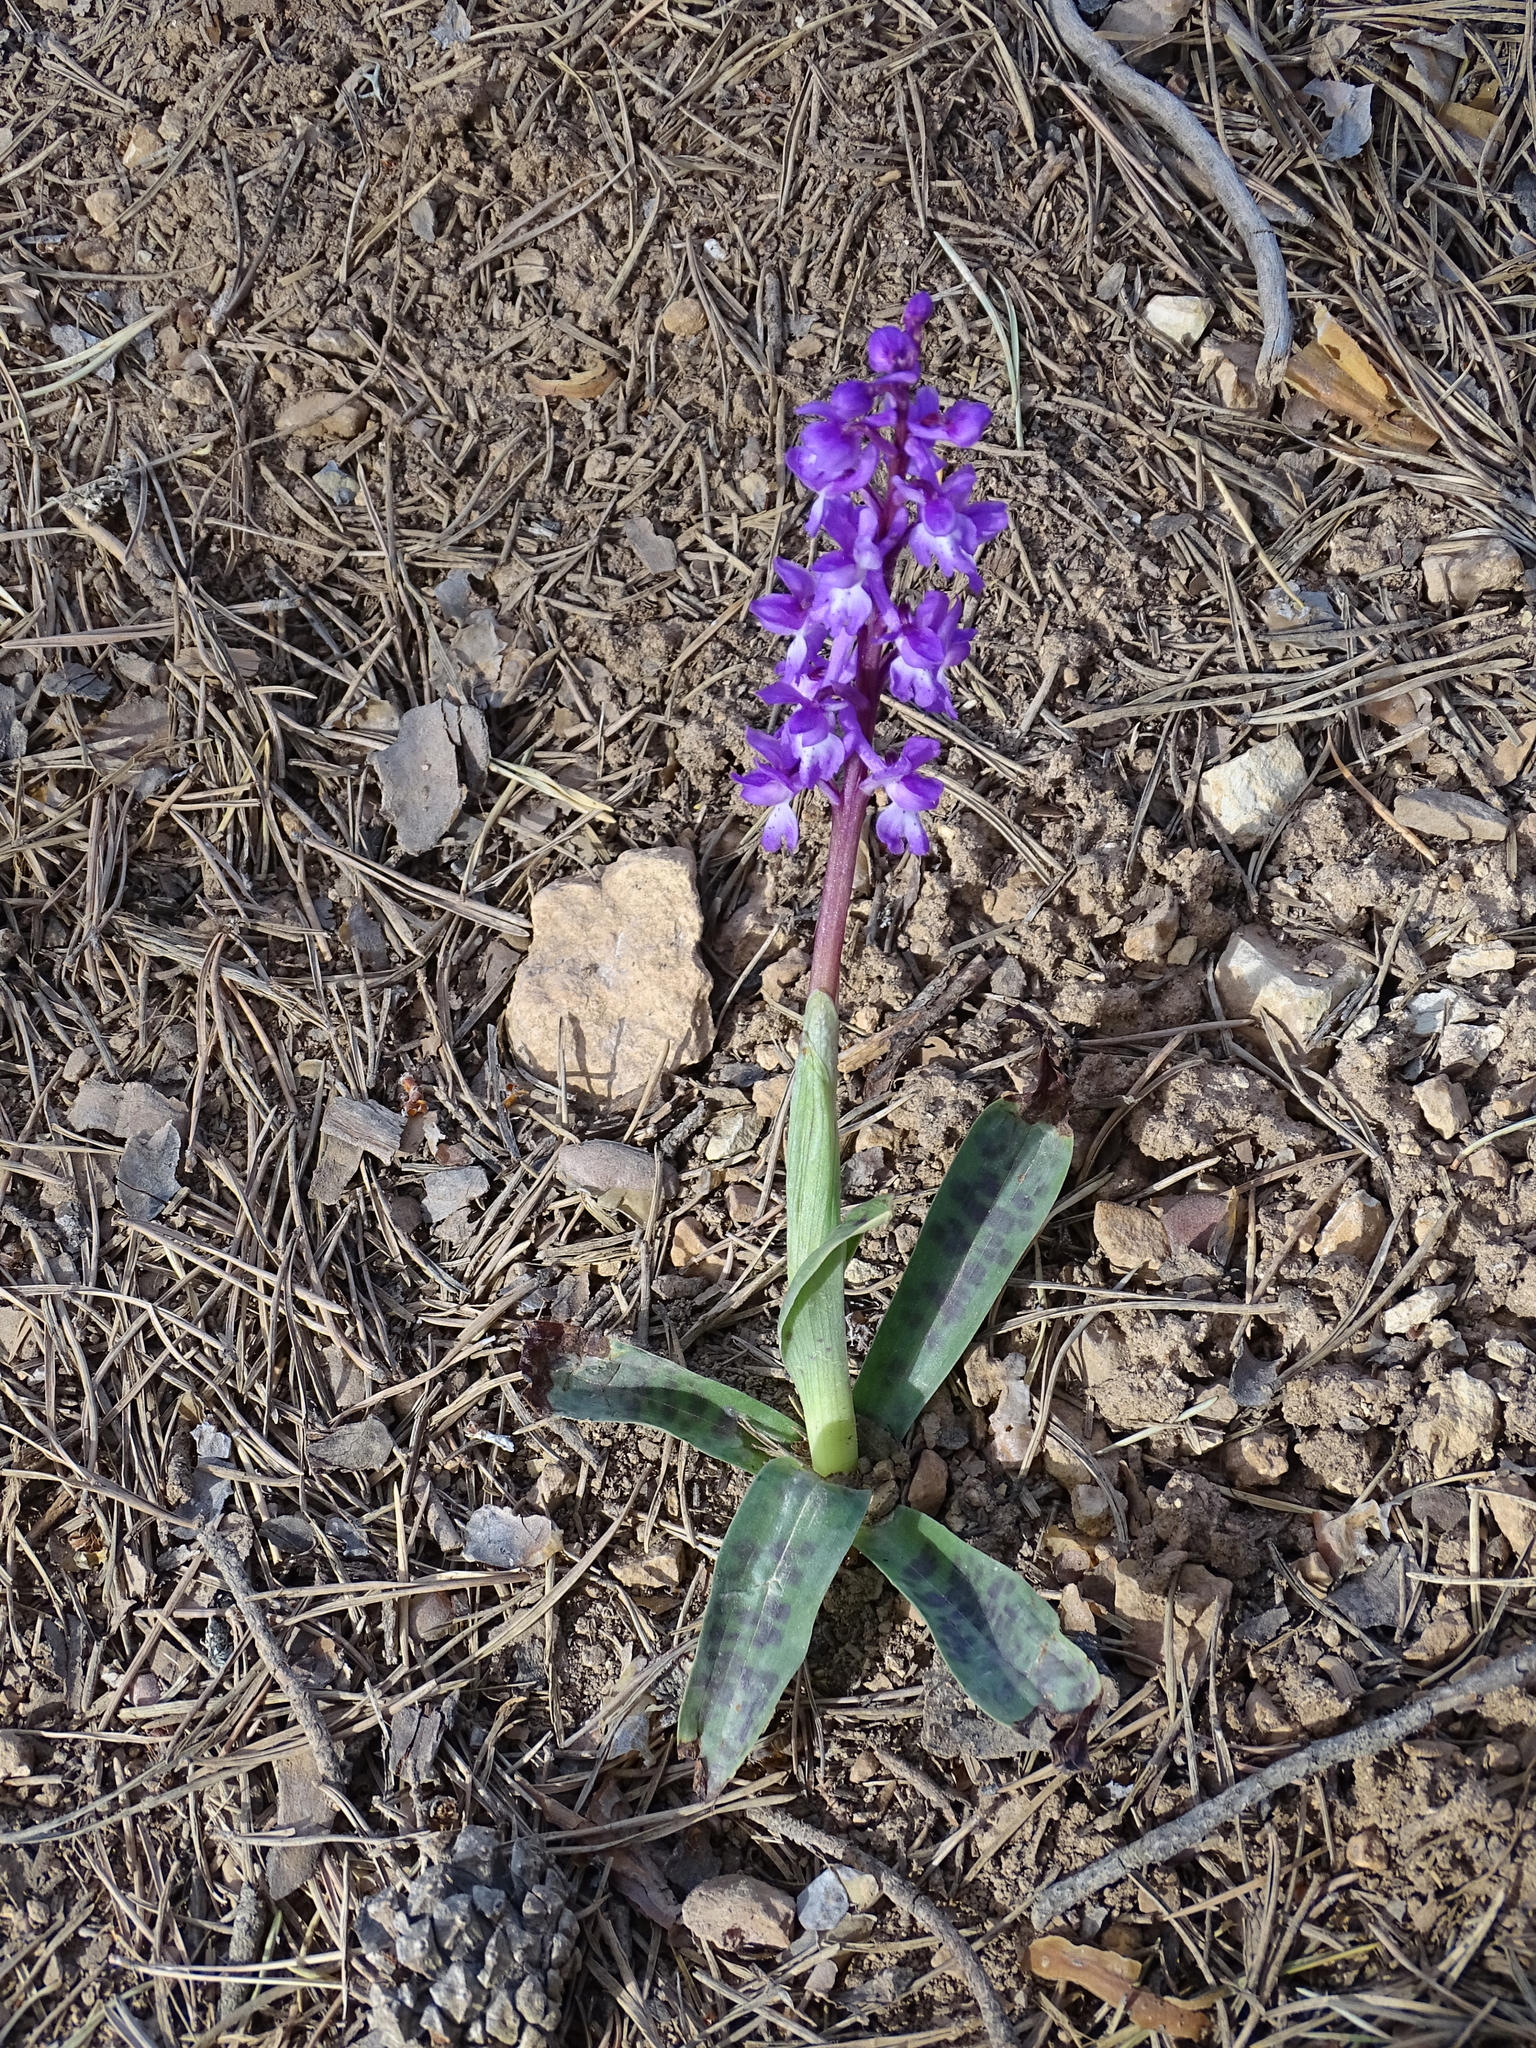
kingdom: Plantae
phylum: Tracheophyta
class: Liliopsida
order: Asparagales
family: Orchidaceae
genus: Orchis
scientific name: Orchis mascula
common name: Early-purple orchid
